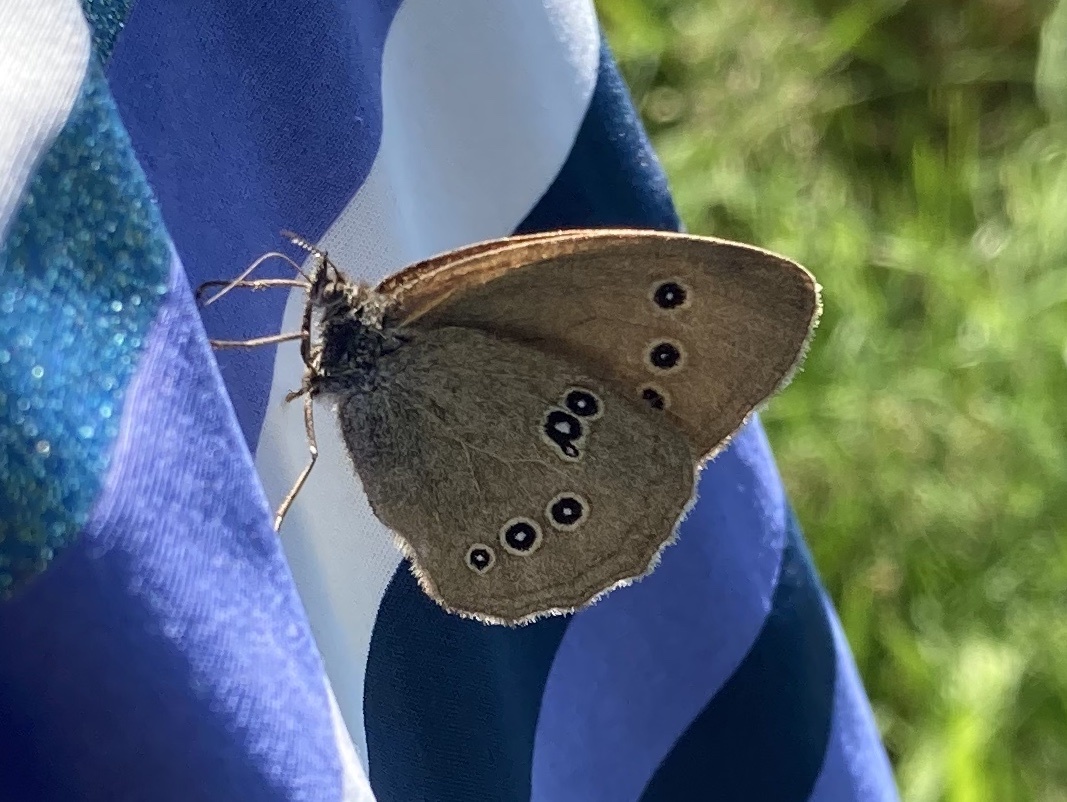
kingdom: Animalia
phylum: Arthropoda
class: Insecta
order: Lepidoptera
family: Nymphalidae
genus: Aphantopus
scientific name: Aphantopus hyperantus
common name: Ringlet
